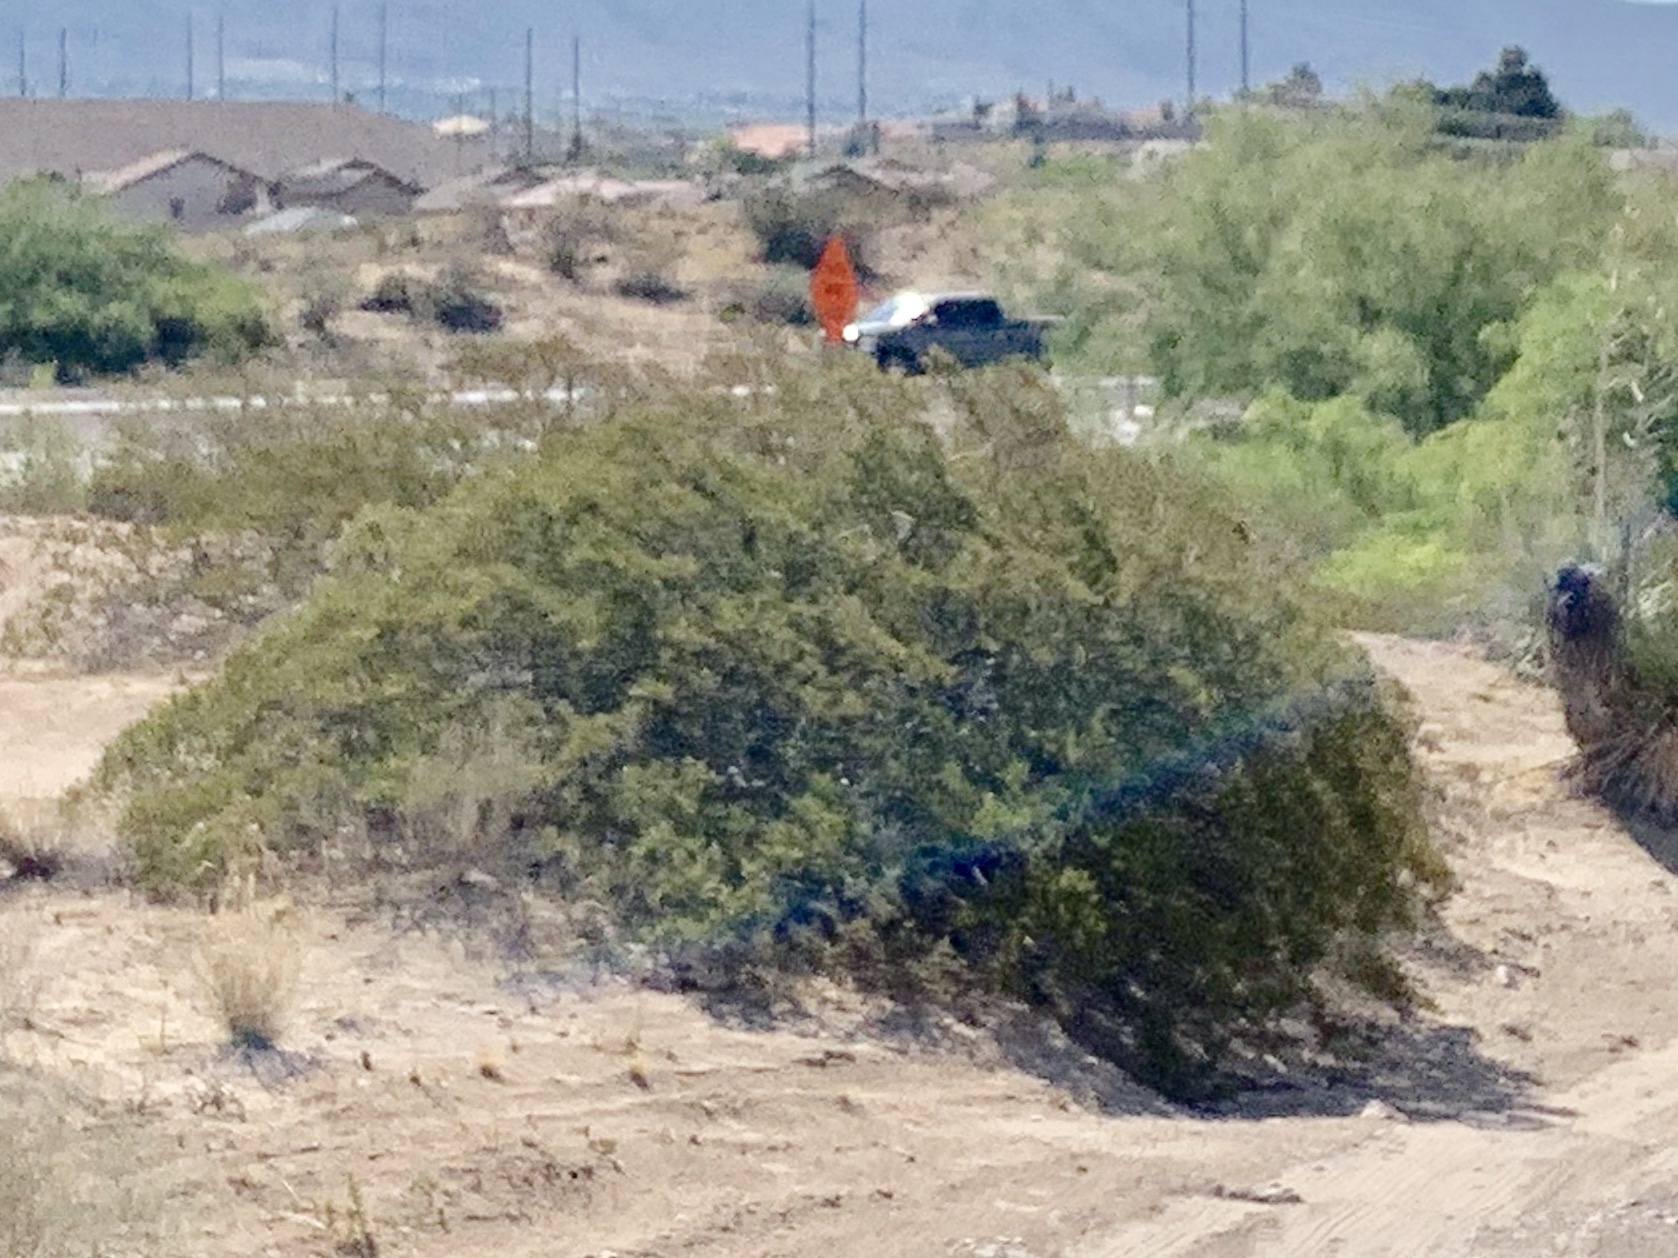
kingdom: Plantae
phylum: Tracheophyta
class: Magnoliopsida
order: Zygophyllales
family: Zygophyllaceae
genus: Larrea
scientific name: Larrea tridentata
